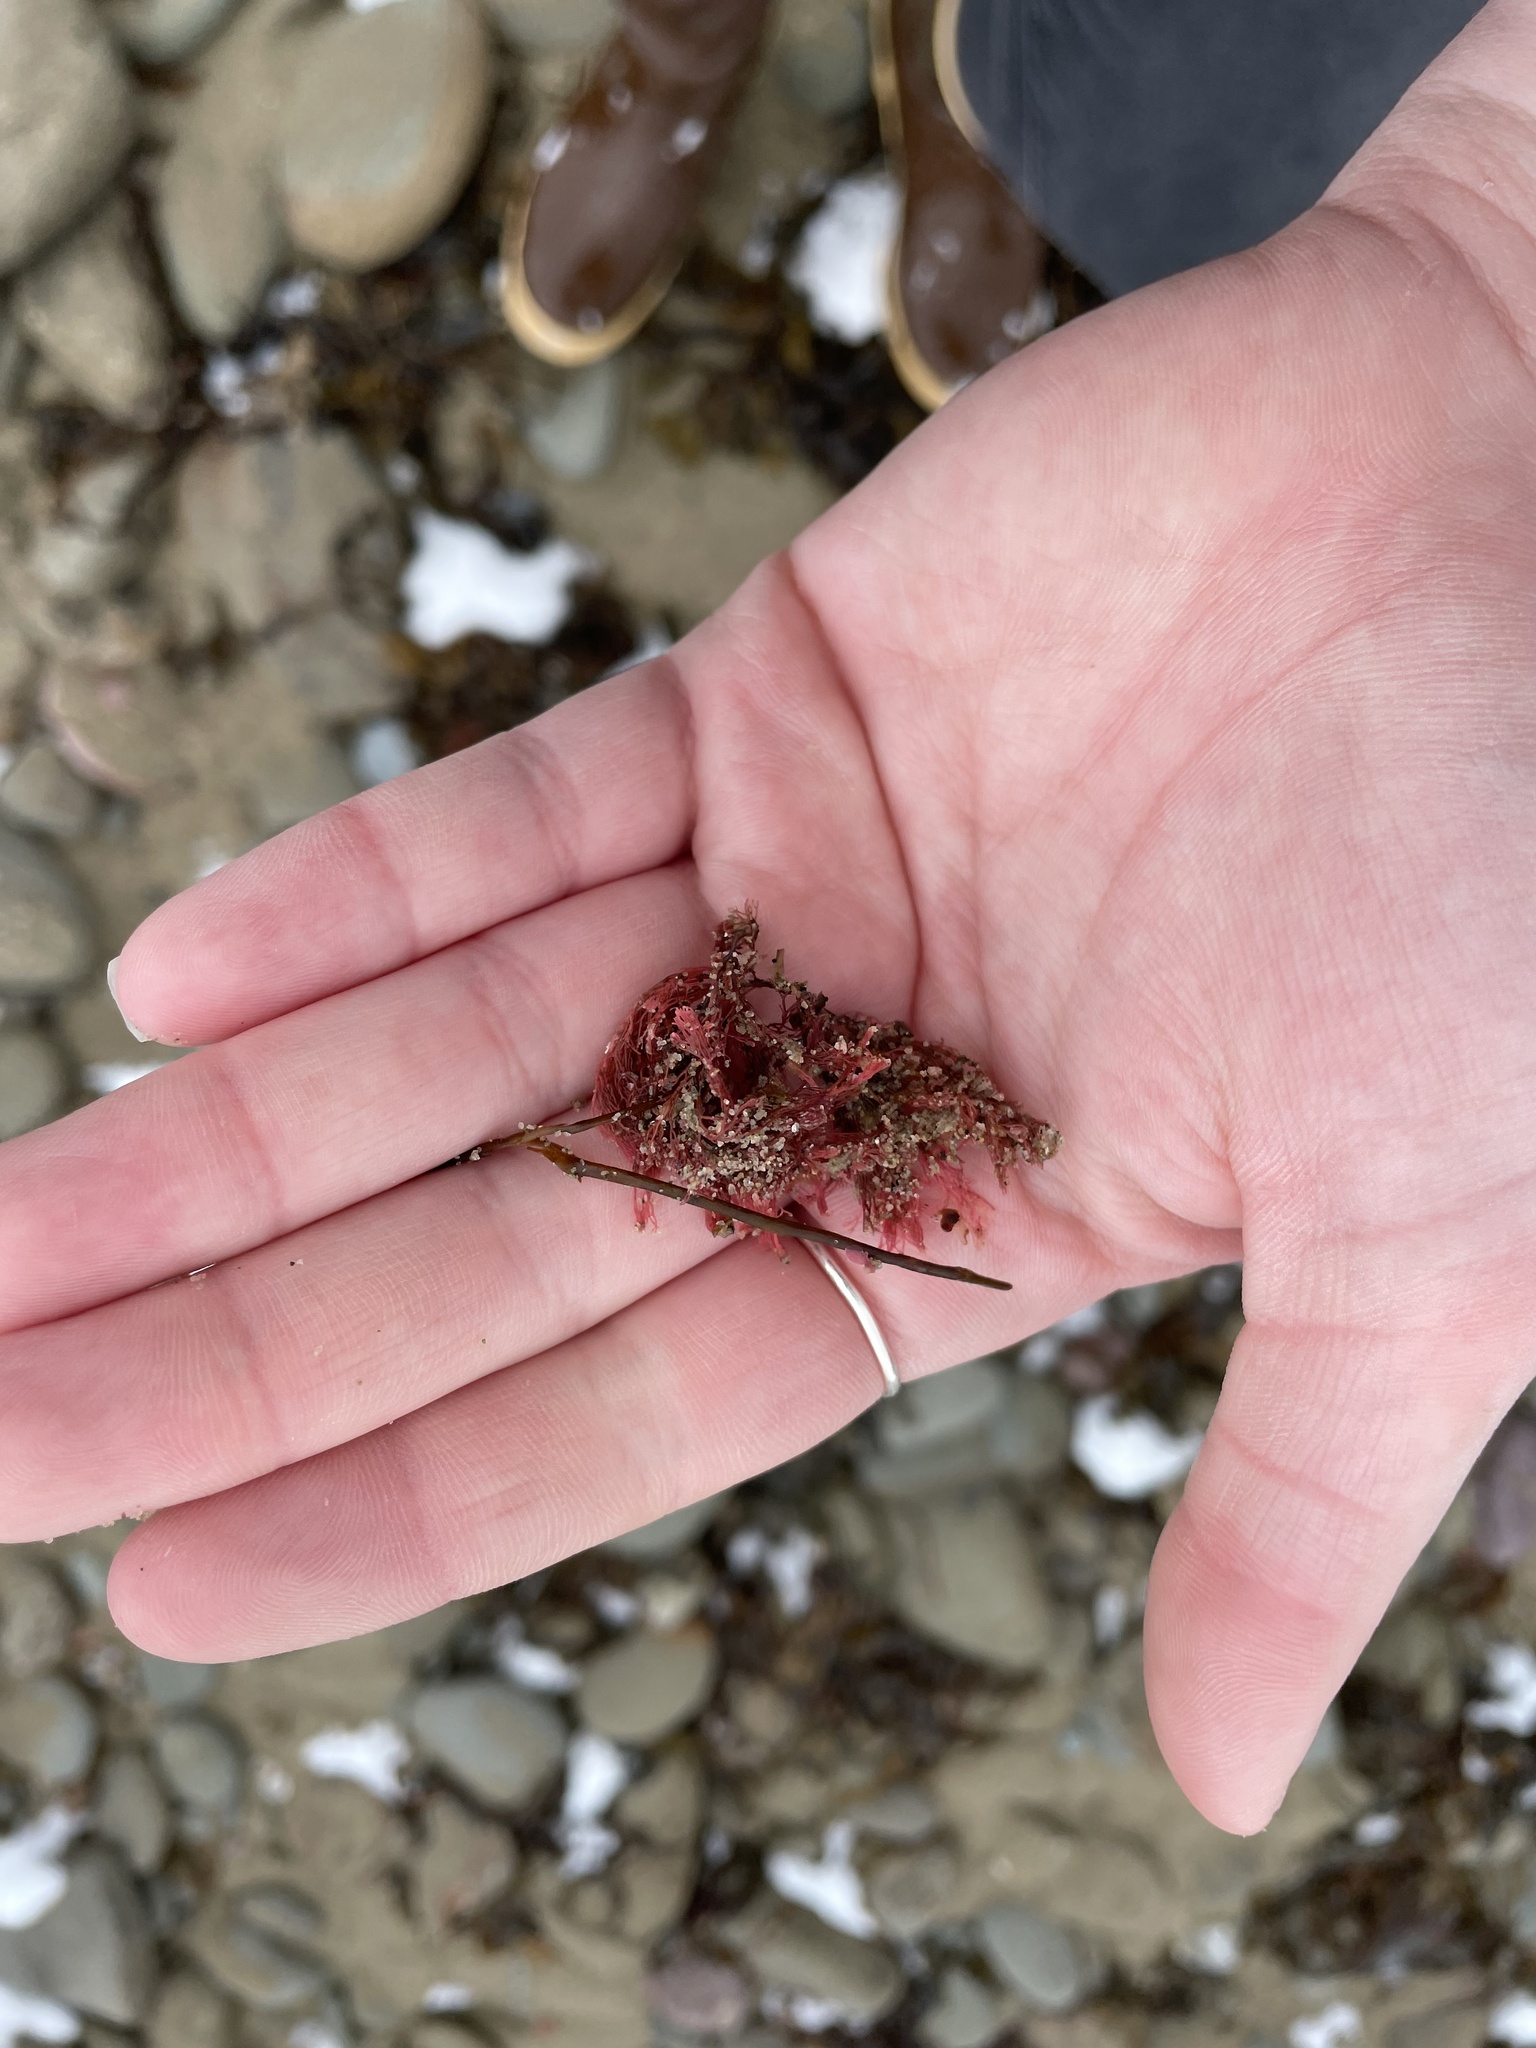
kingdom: Plantae
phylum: Rhodophyta
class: Florideophyceae
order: Corallinales
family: Corallinaceae
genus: Corallina
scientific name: Corallina officinalis
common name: Coral weed
